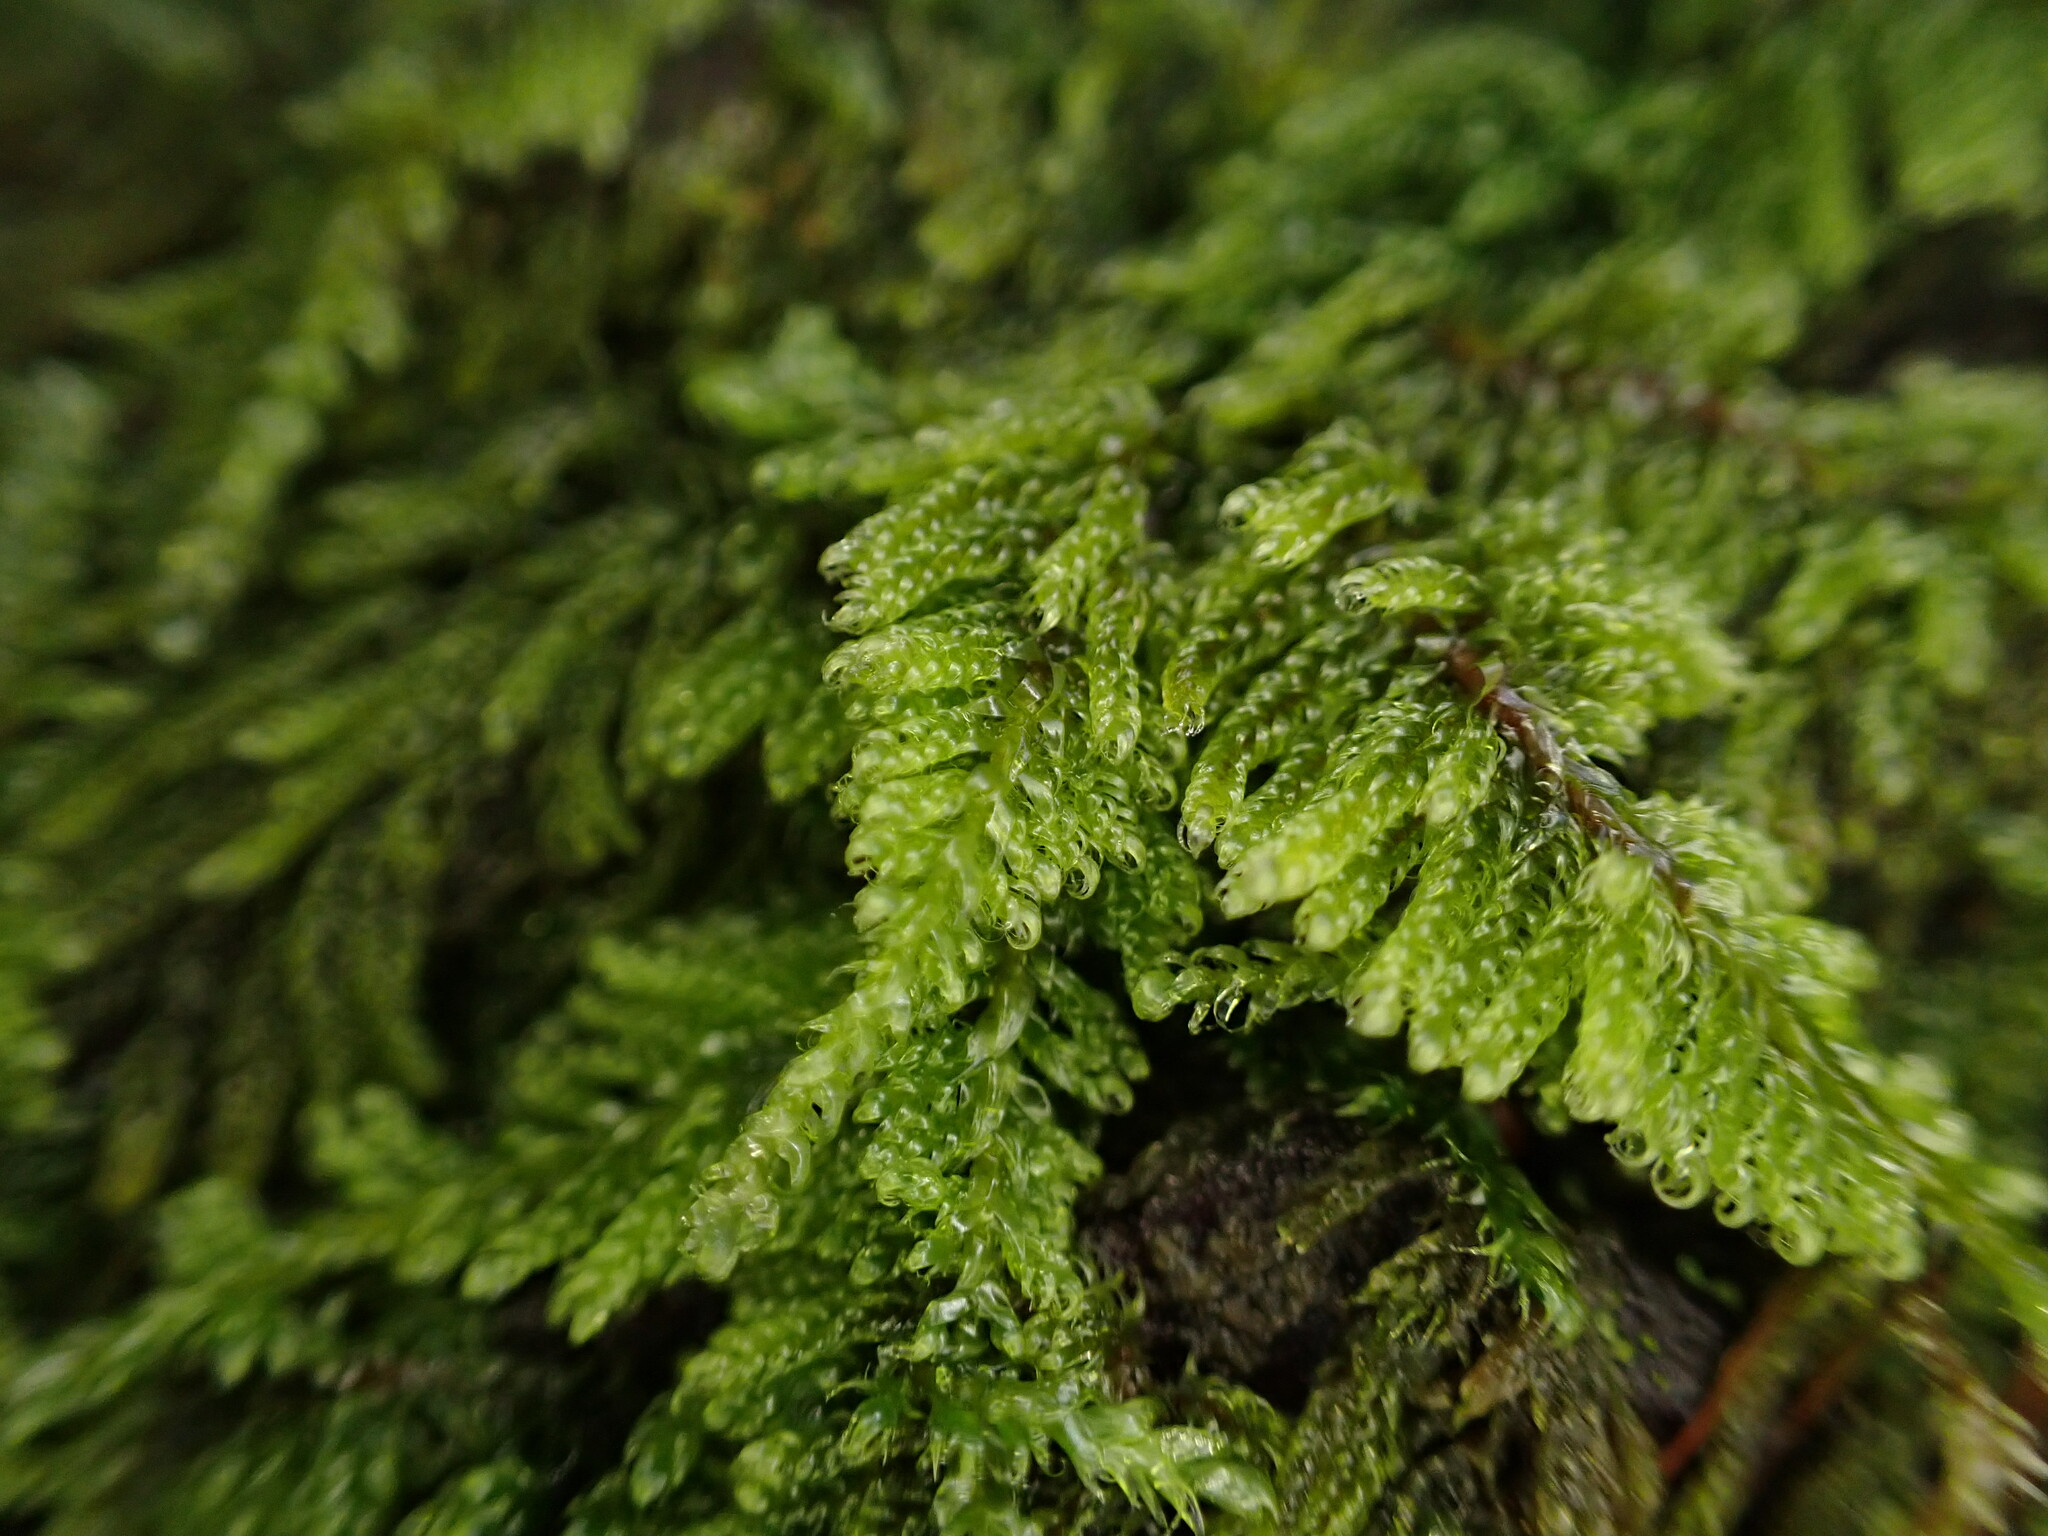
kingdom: Plantae
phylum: Bryophyta
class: Bryopsida
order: Hypnales
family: Pylaisiadelphaceae
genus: Trochophyllohypnum
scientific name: Trochophyllohypnum circinale
